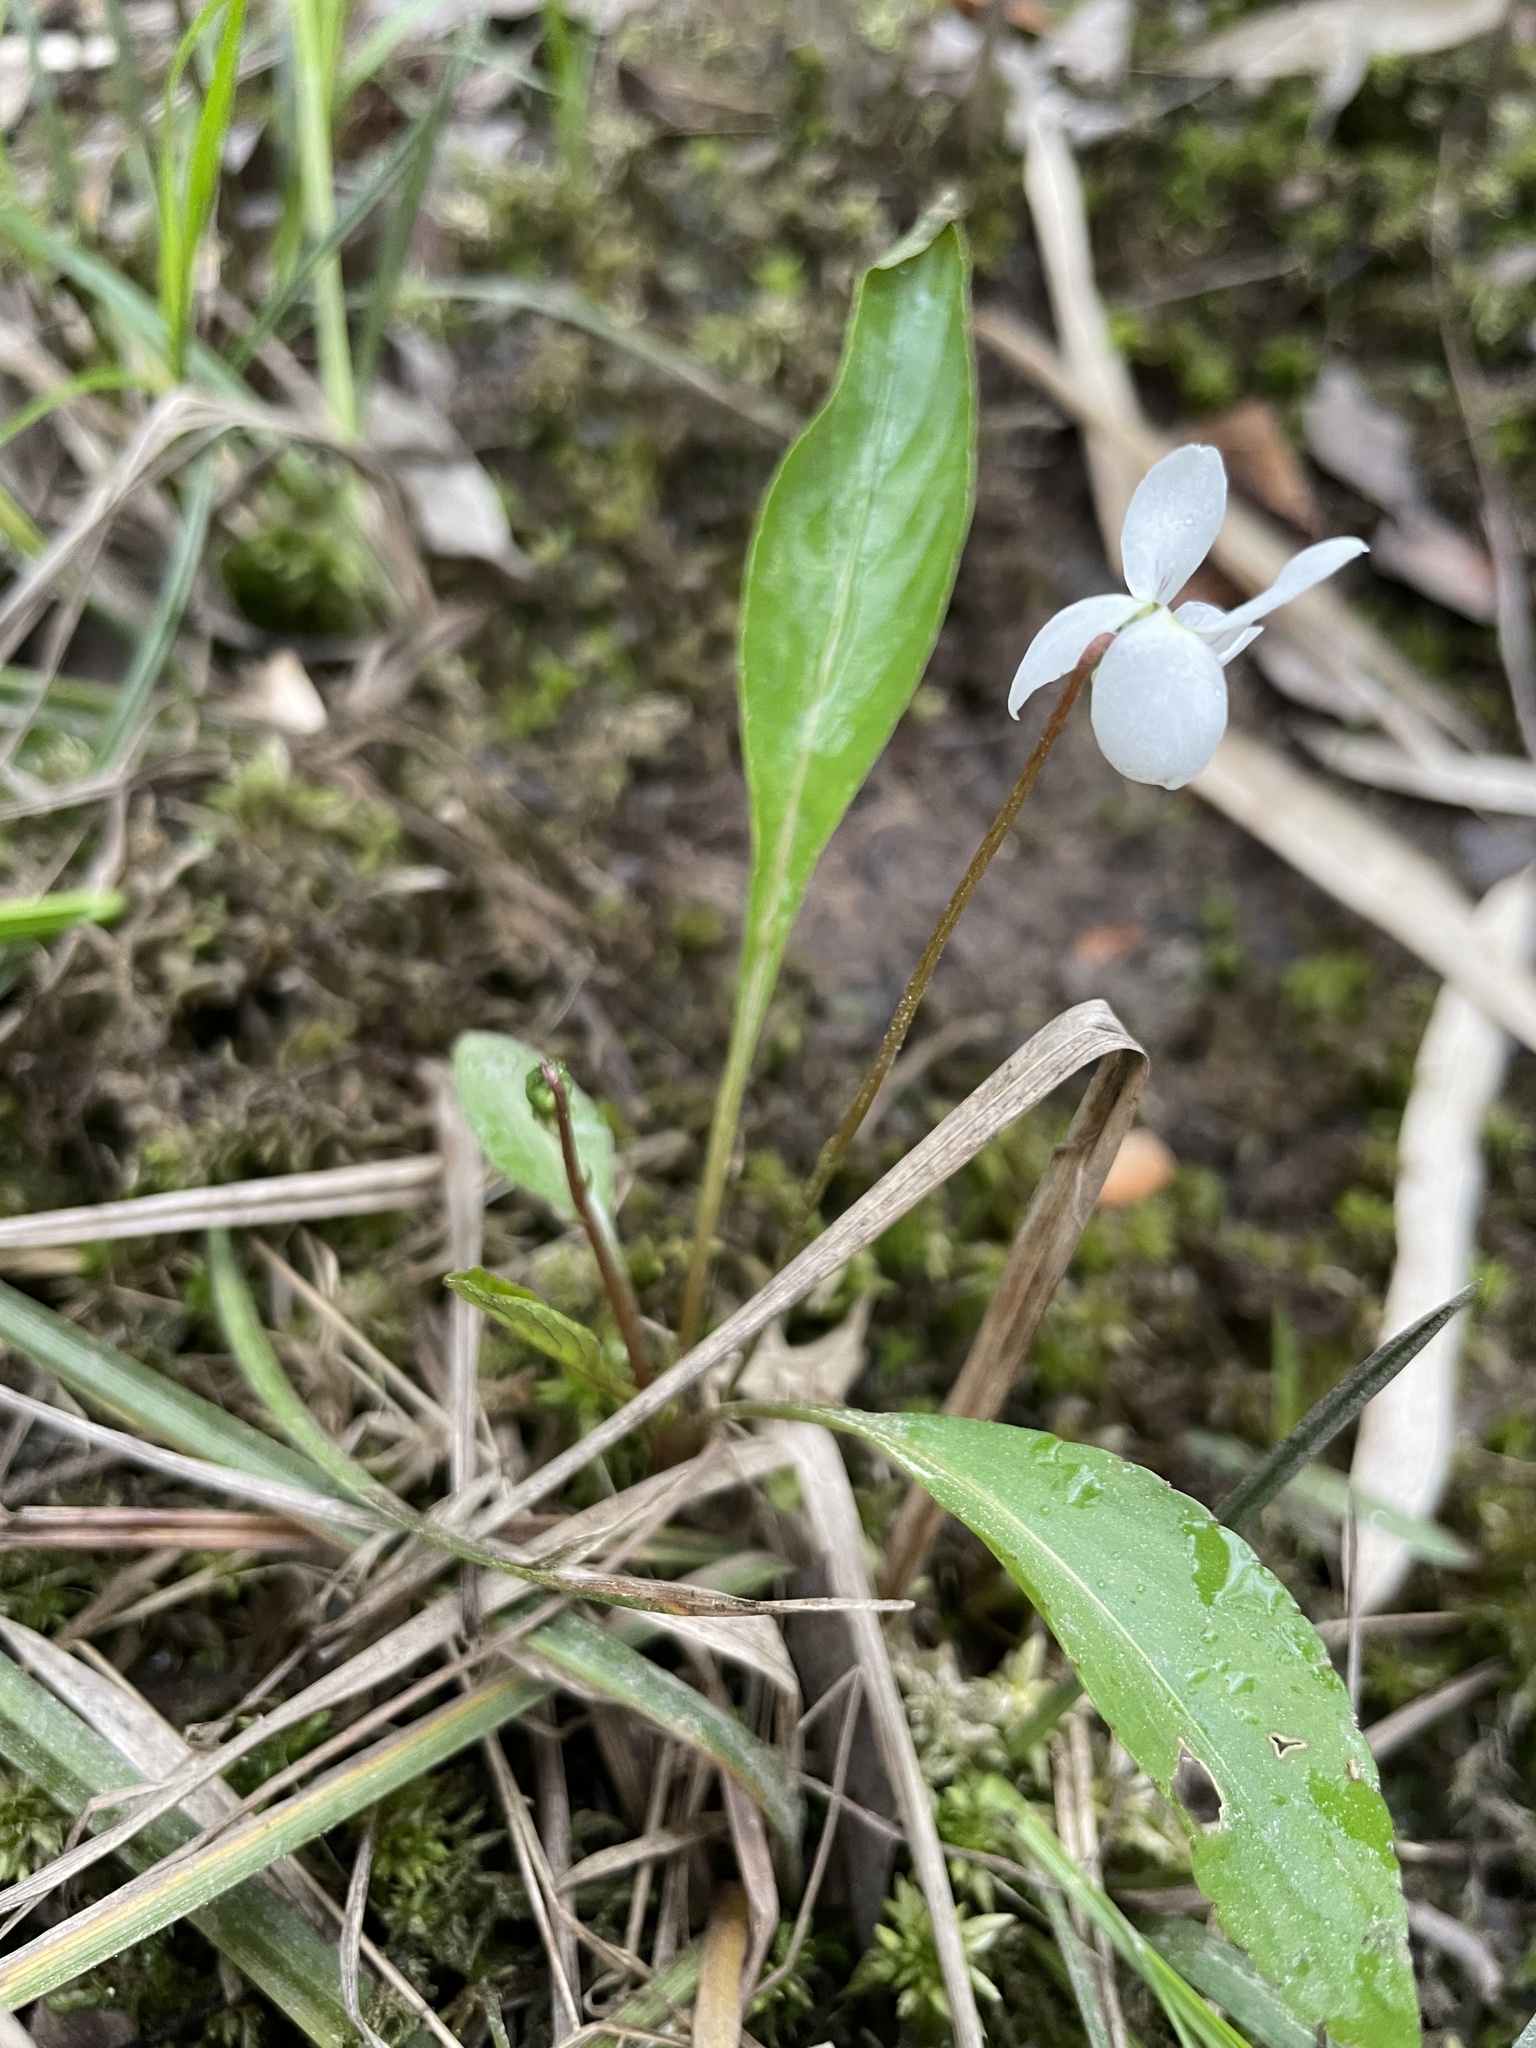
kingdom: Plantae
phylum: Tracheophyta
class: Magnoliopsida
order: Malpighiales
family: Violaceae
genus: Viola
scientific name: Viola lanceolata
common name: Bog white violet
